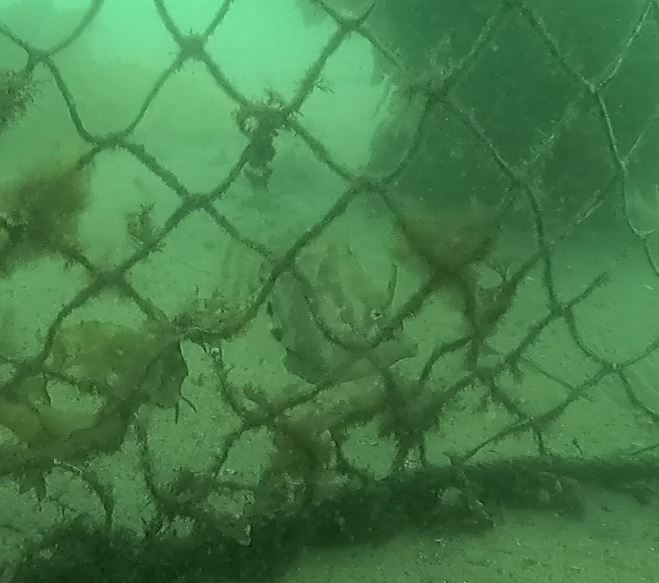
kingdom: Animalia
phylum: Chordata
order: Tetraodontiformes
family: Monacanthidae
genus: Monacanthus
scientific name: Monacanthus chinensis
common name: Centreboard leatherjacket
